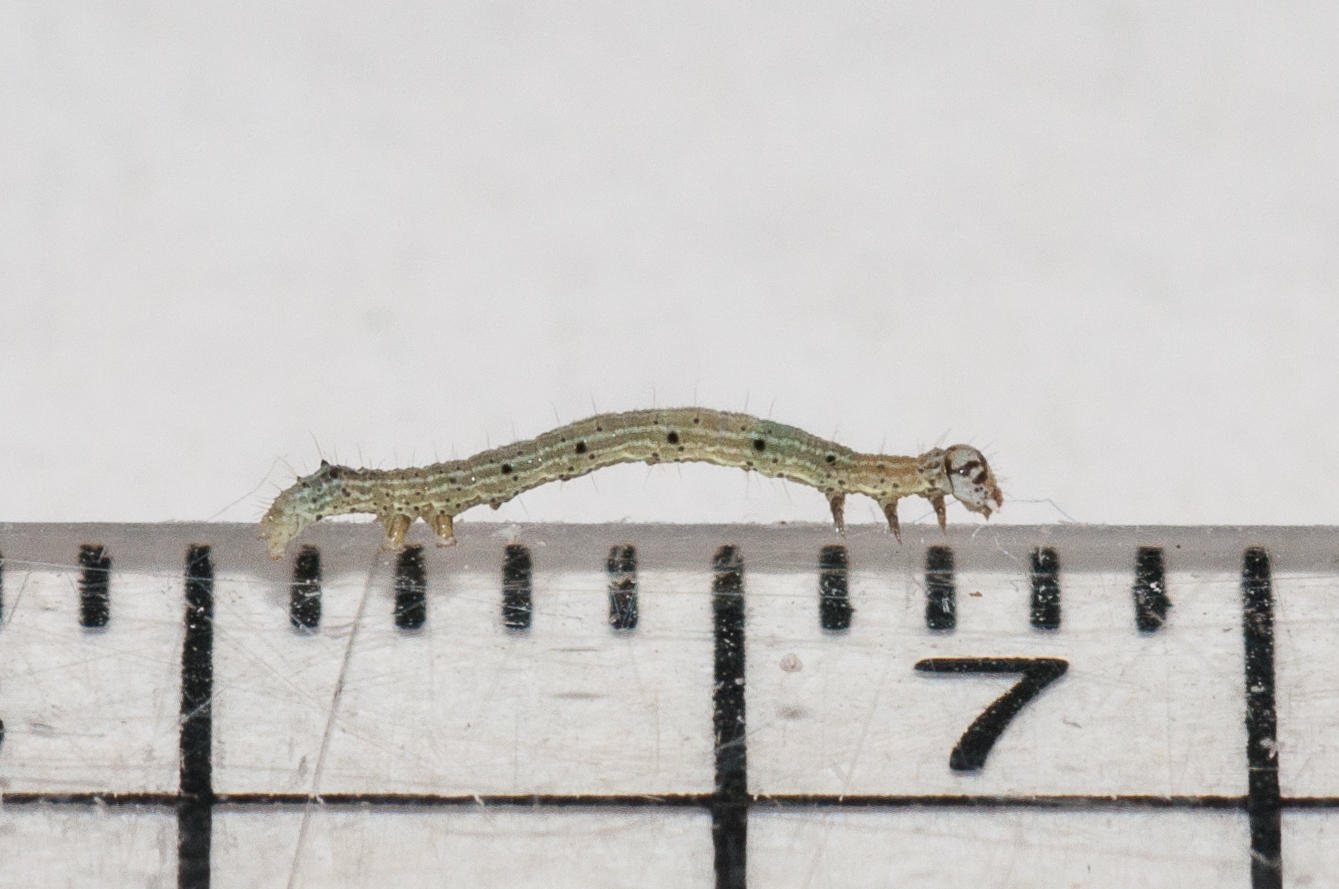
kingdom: Animalia
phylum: Arthropoda
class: Insecta
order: Lepidoptera
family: Erebidae
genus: Achaea
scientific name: Achaea indeterminata
